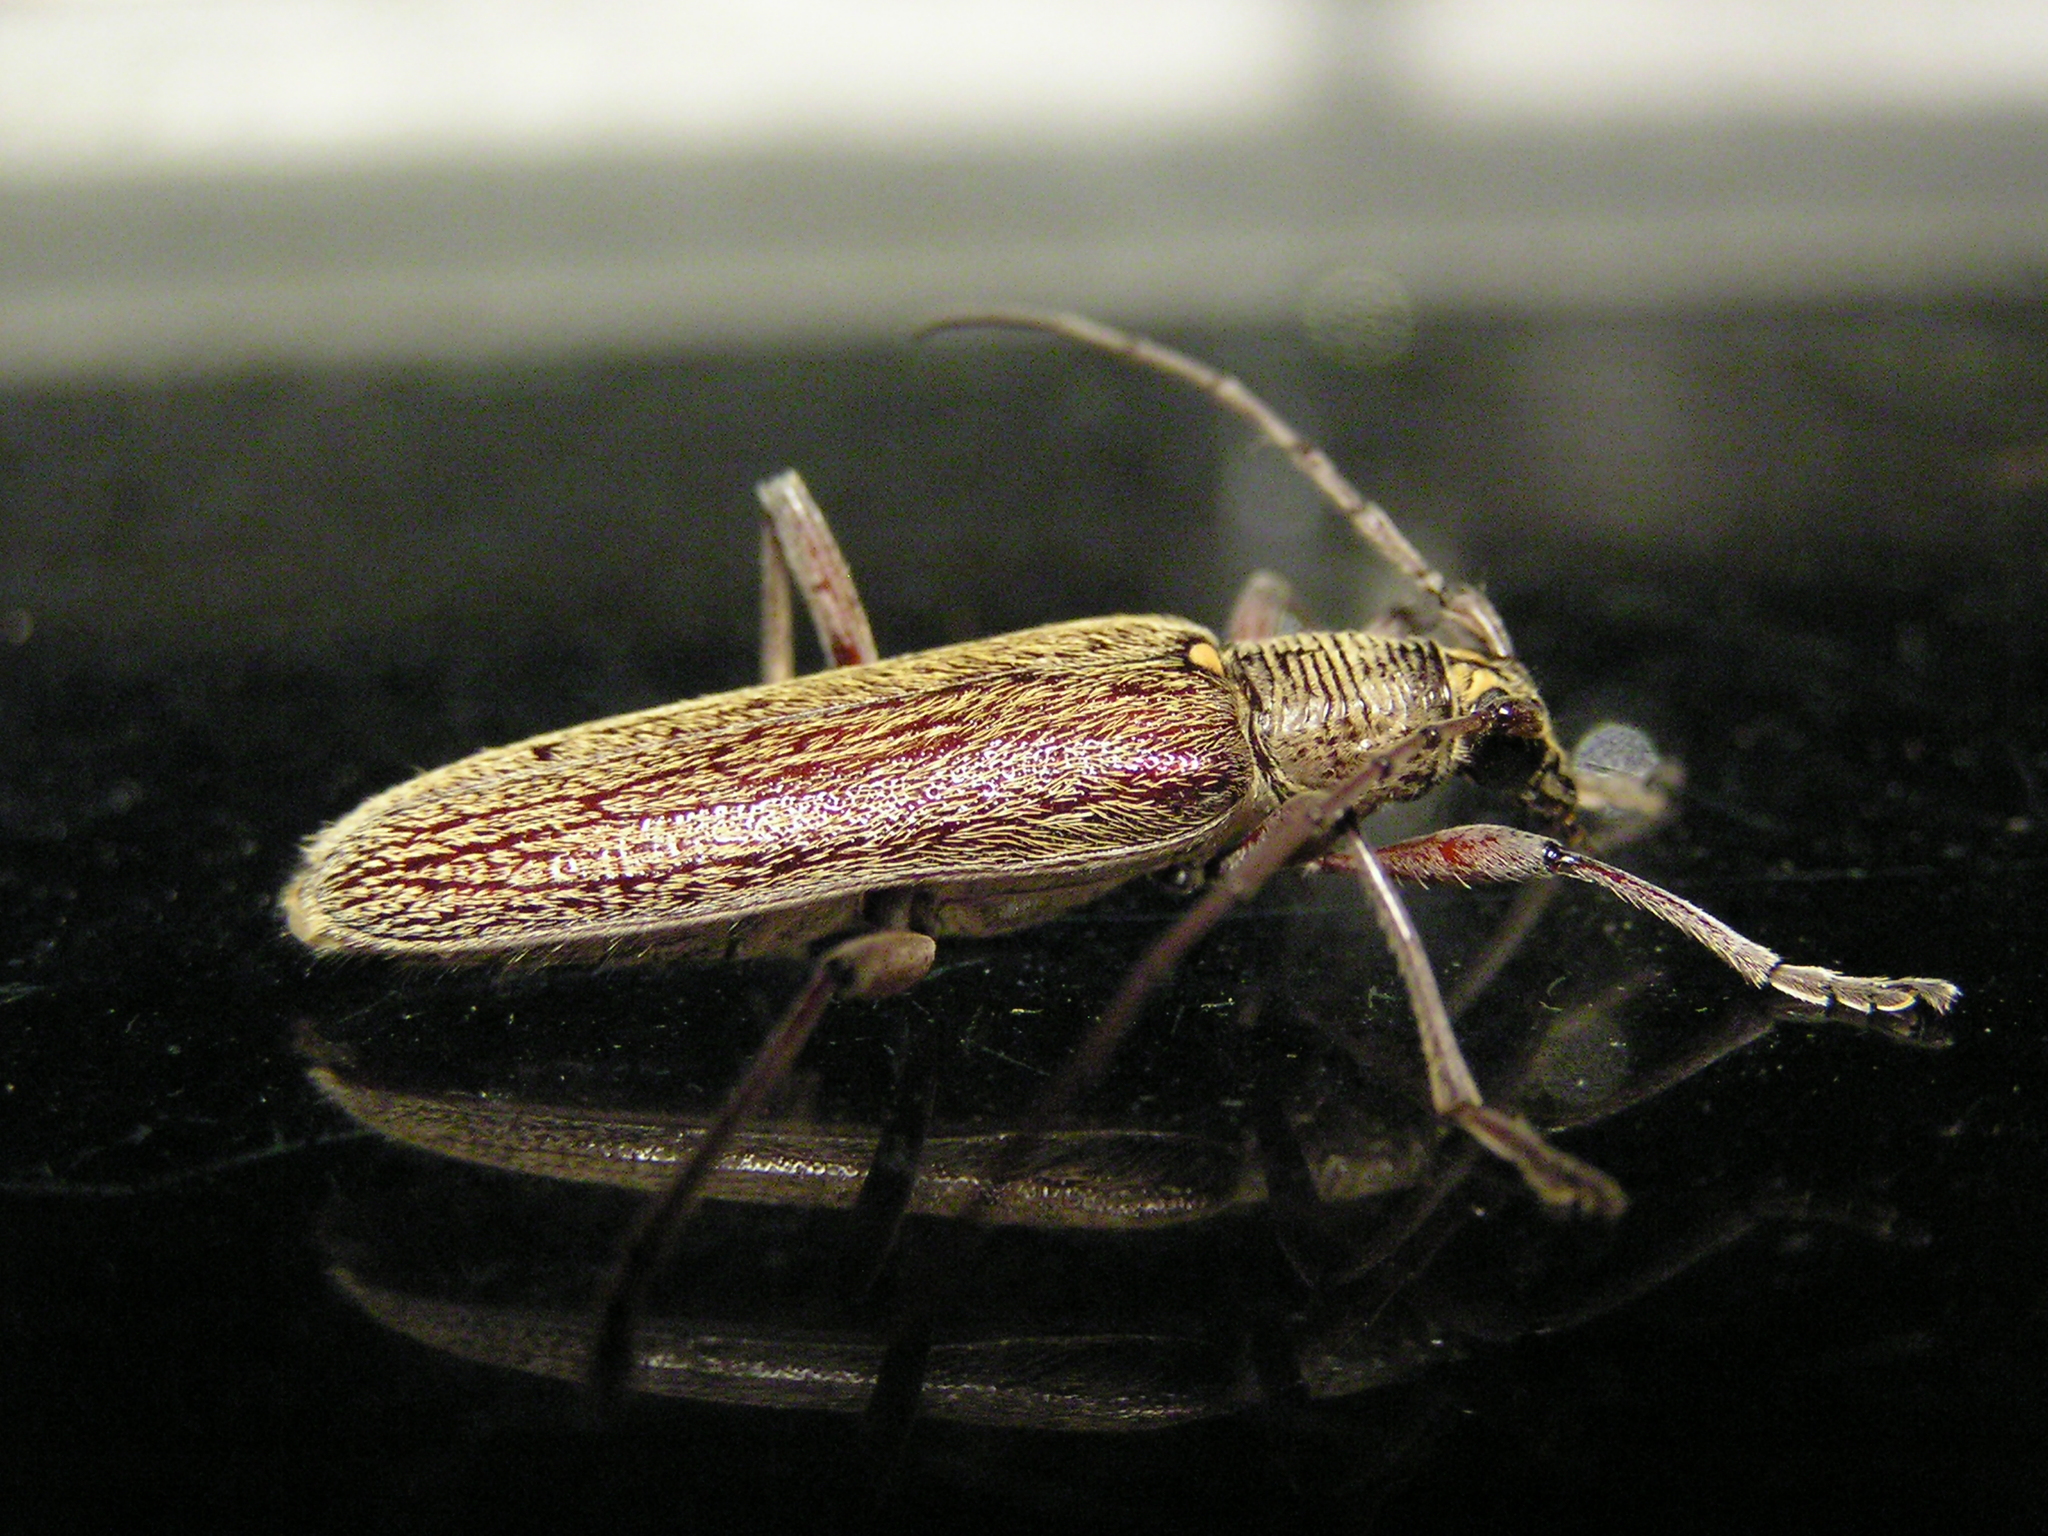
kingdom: Animalia
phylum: Arthropoda
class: Insecta
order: Coleoptera
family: Cerambycidae
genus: Oemona
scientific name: Oemona hirta
